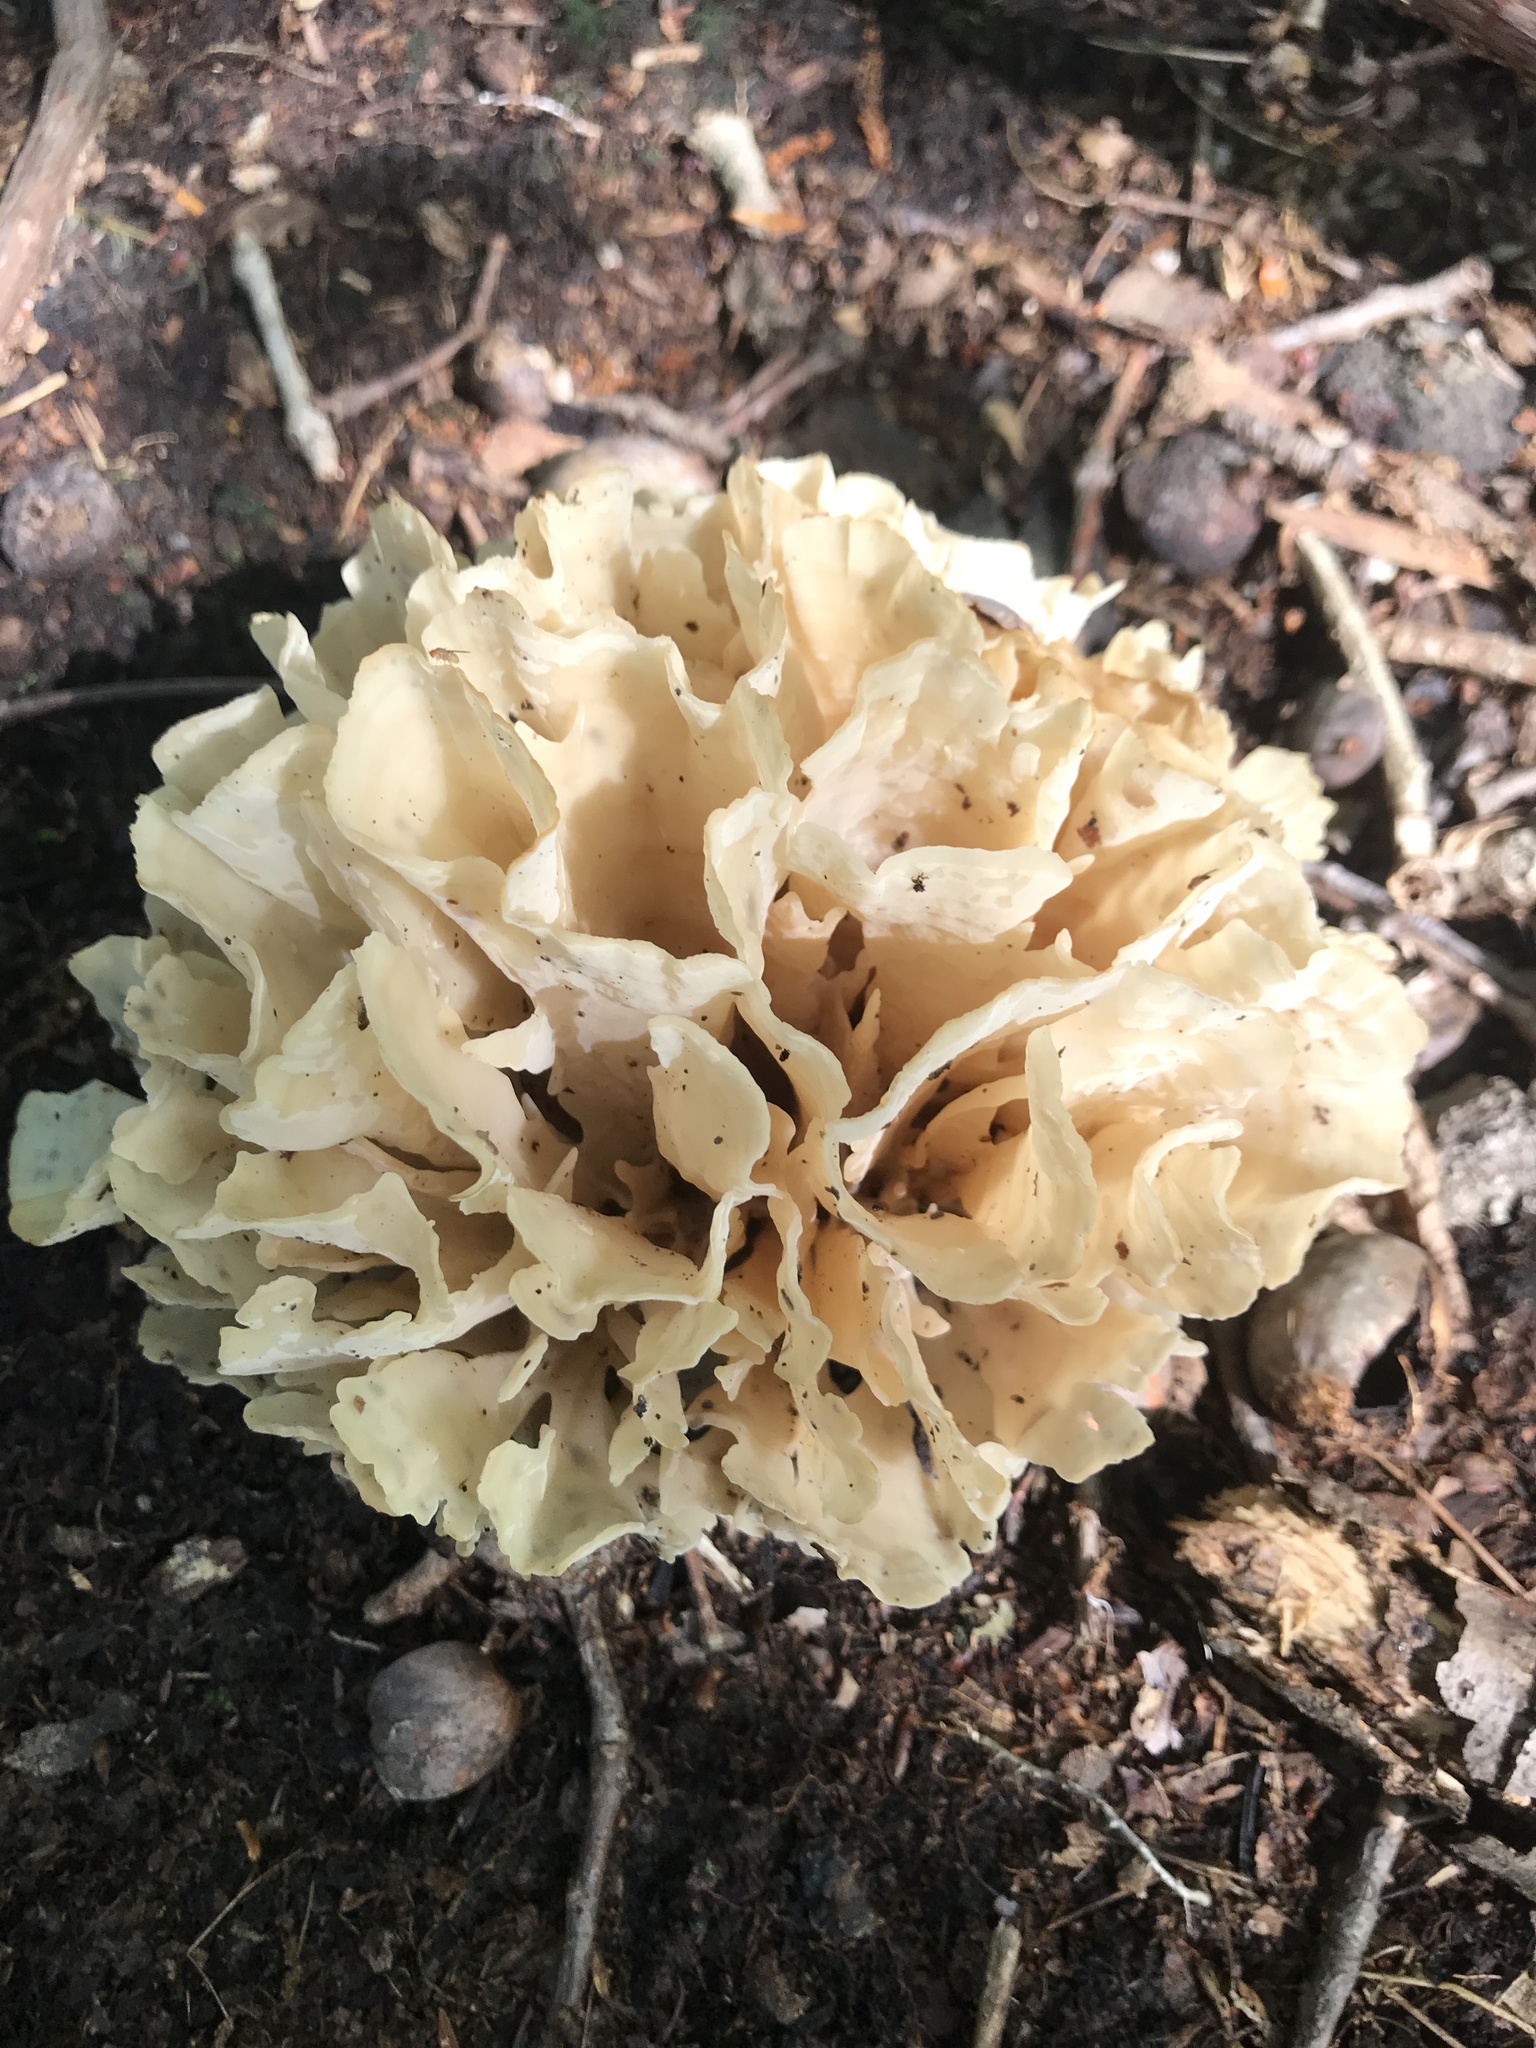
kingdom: Fungi
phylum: Basidiomycota
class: Agaricomycetes
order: Polyporales
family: Sparassidaceae
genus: Sparassis
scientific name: Sparassis spathulata
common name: Eastern cauliflower mushroom
